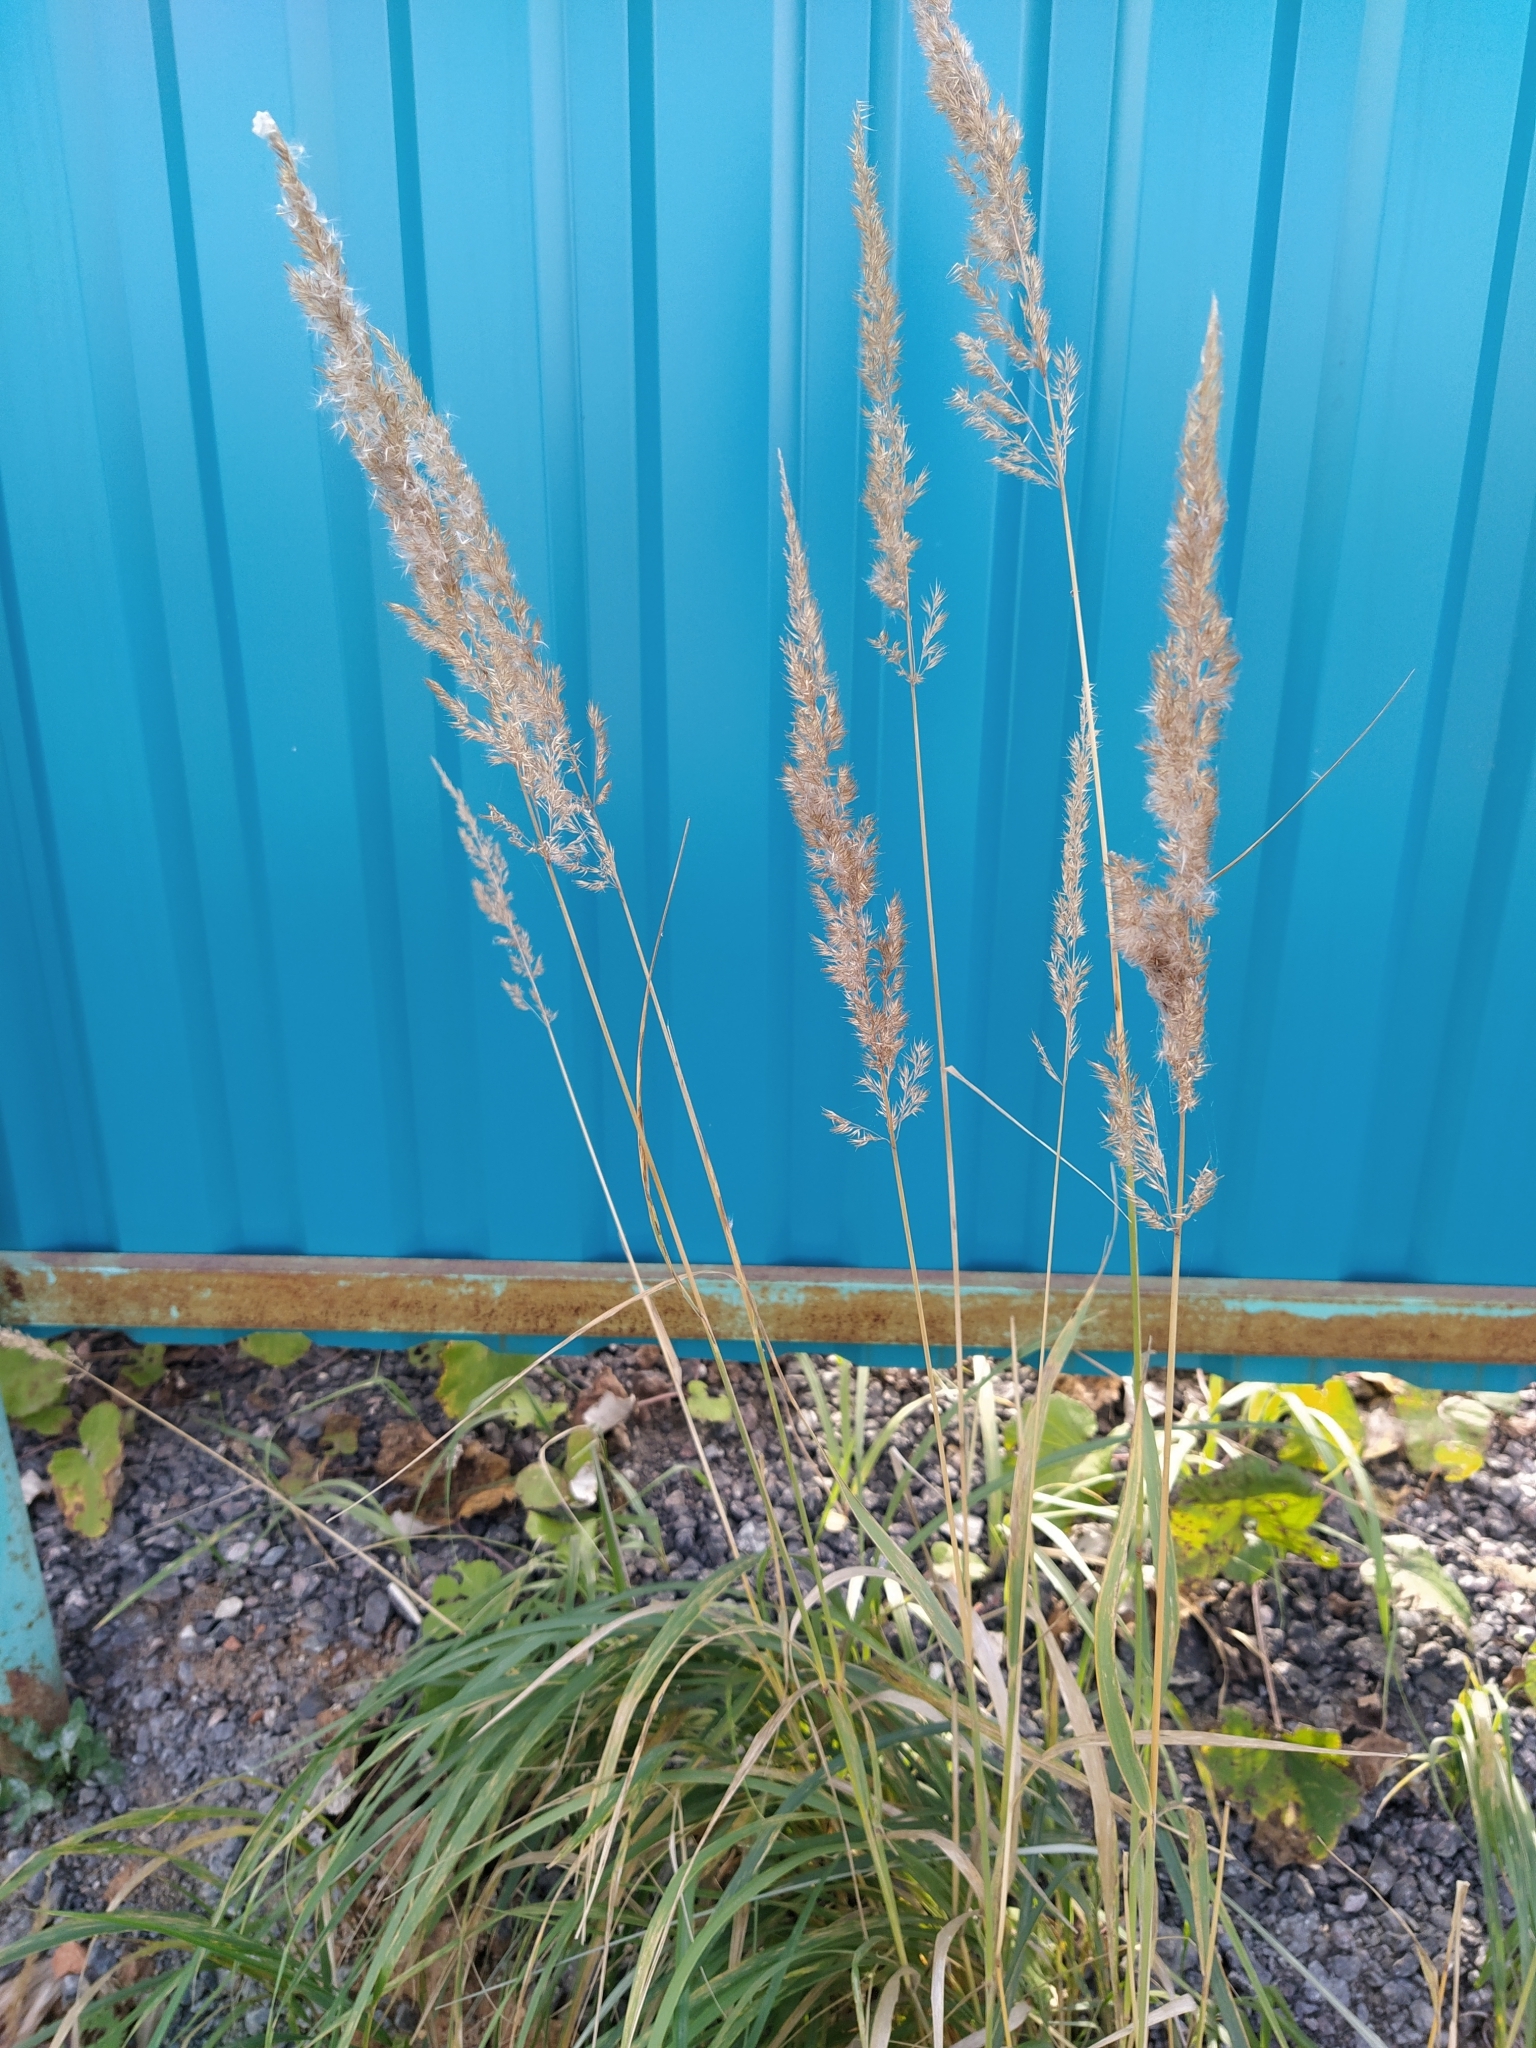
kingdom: Plantae
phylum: Tracheophyta
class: Liliopsida
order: Poales
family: Poaceae
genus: Calamagrostis
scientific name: Calamagrostis epigejos
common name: Wood small-reed
